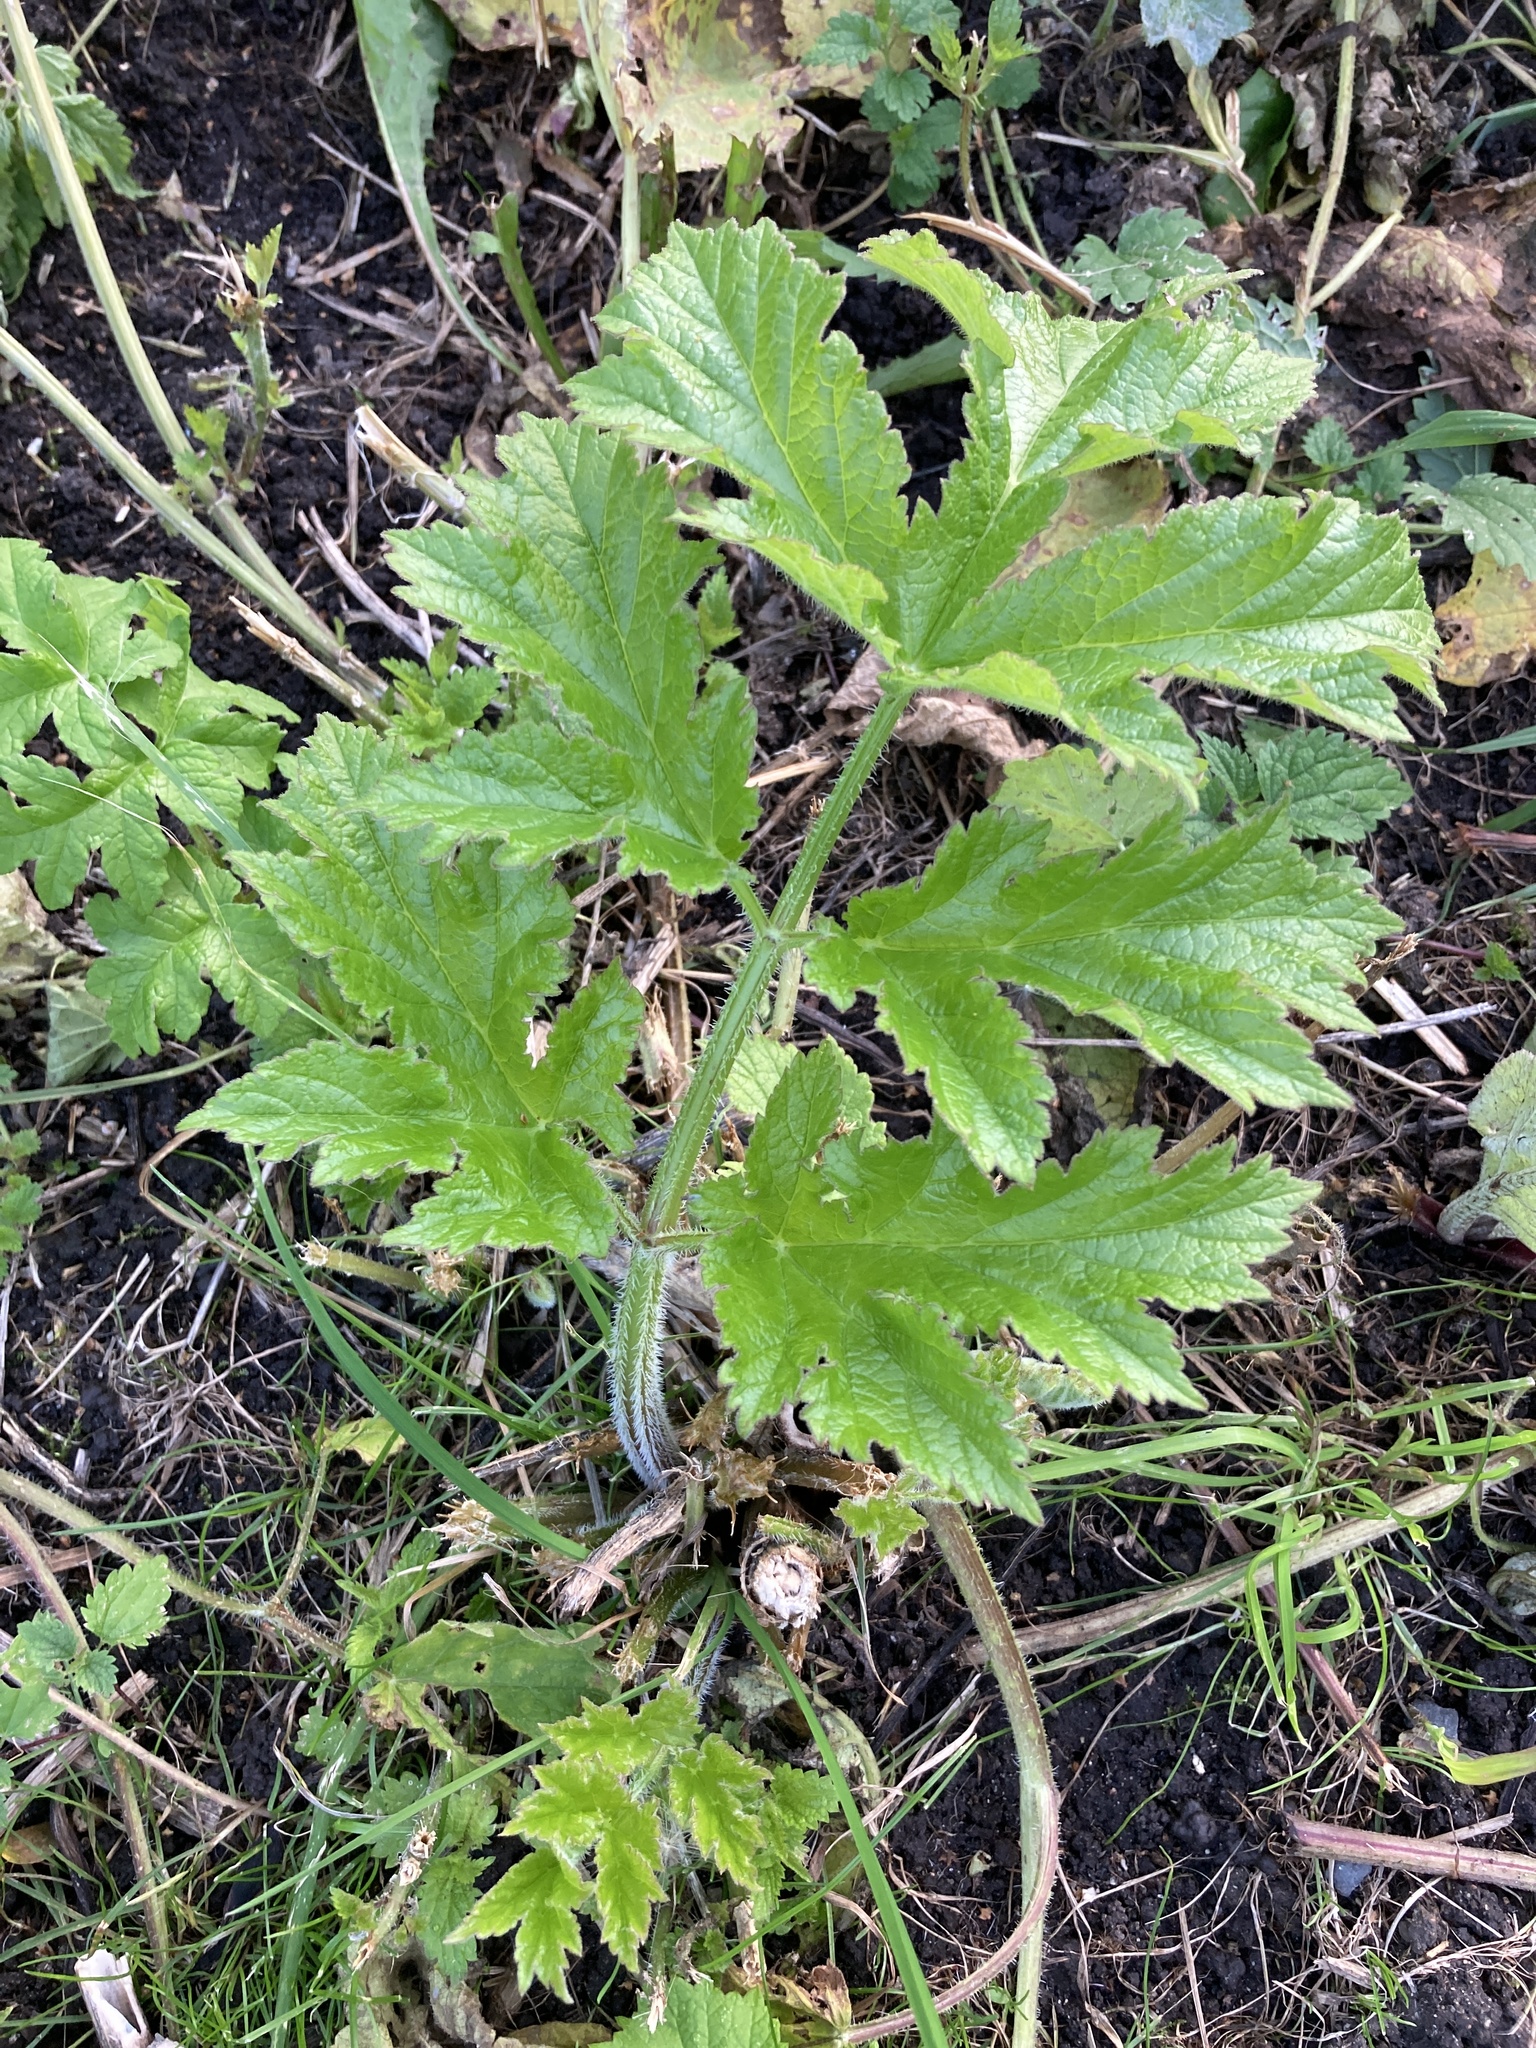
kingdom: Plantae
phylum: Tracheophyta
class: Magnoliopsida
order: Apiales
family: Apiaceae
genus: Heracleum
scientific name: Heracleum sphondylium
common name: Hogweed
